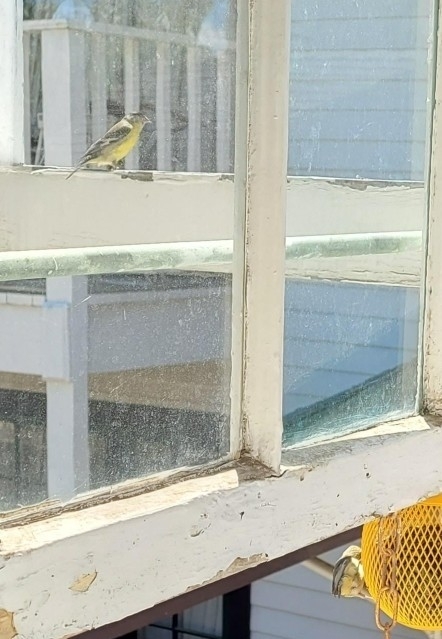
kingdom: Animalia
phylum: Chordata
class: Aves
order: Passeriformes
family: Fringillidae
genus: Spinus
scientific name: Spinus psaltria
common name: Lesser goldfinch
